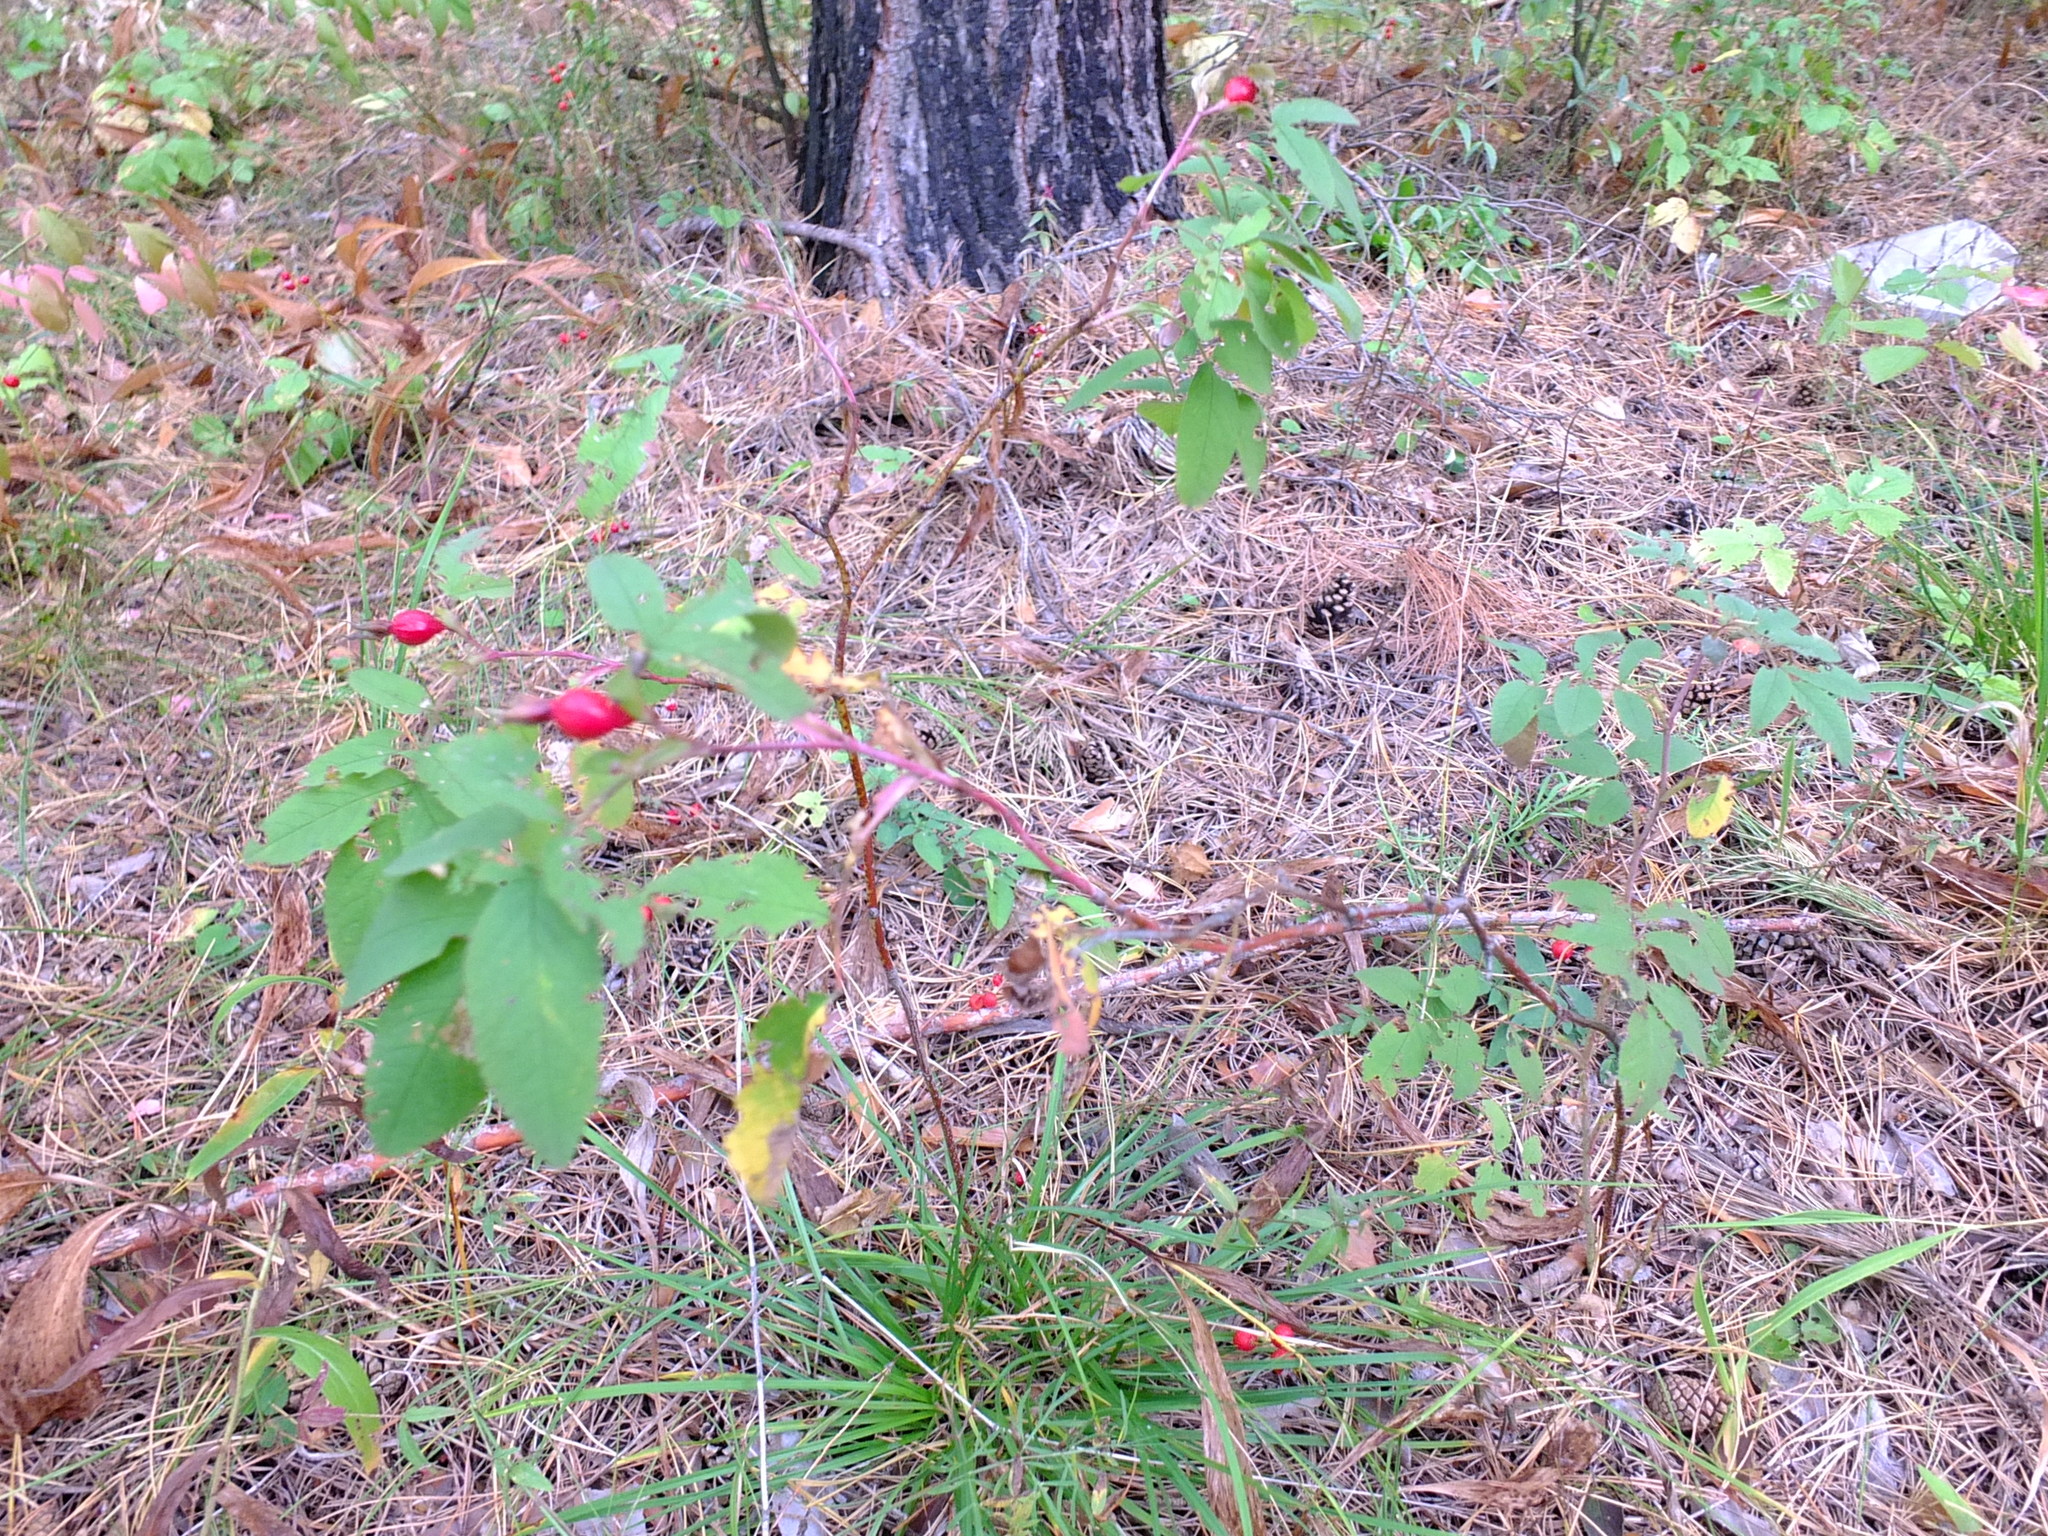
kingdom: Plantae
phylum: Tracheophyta
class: Magnoliopsida
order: Rosales
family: Rosaceae
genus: Rosa
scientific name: Rosa
